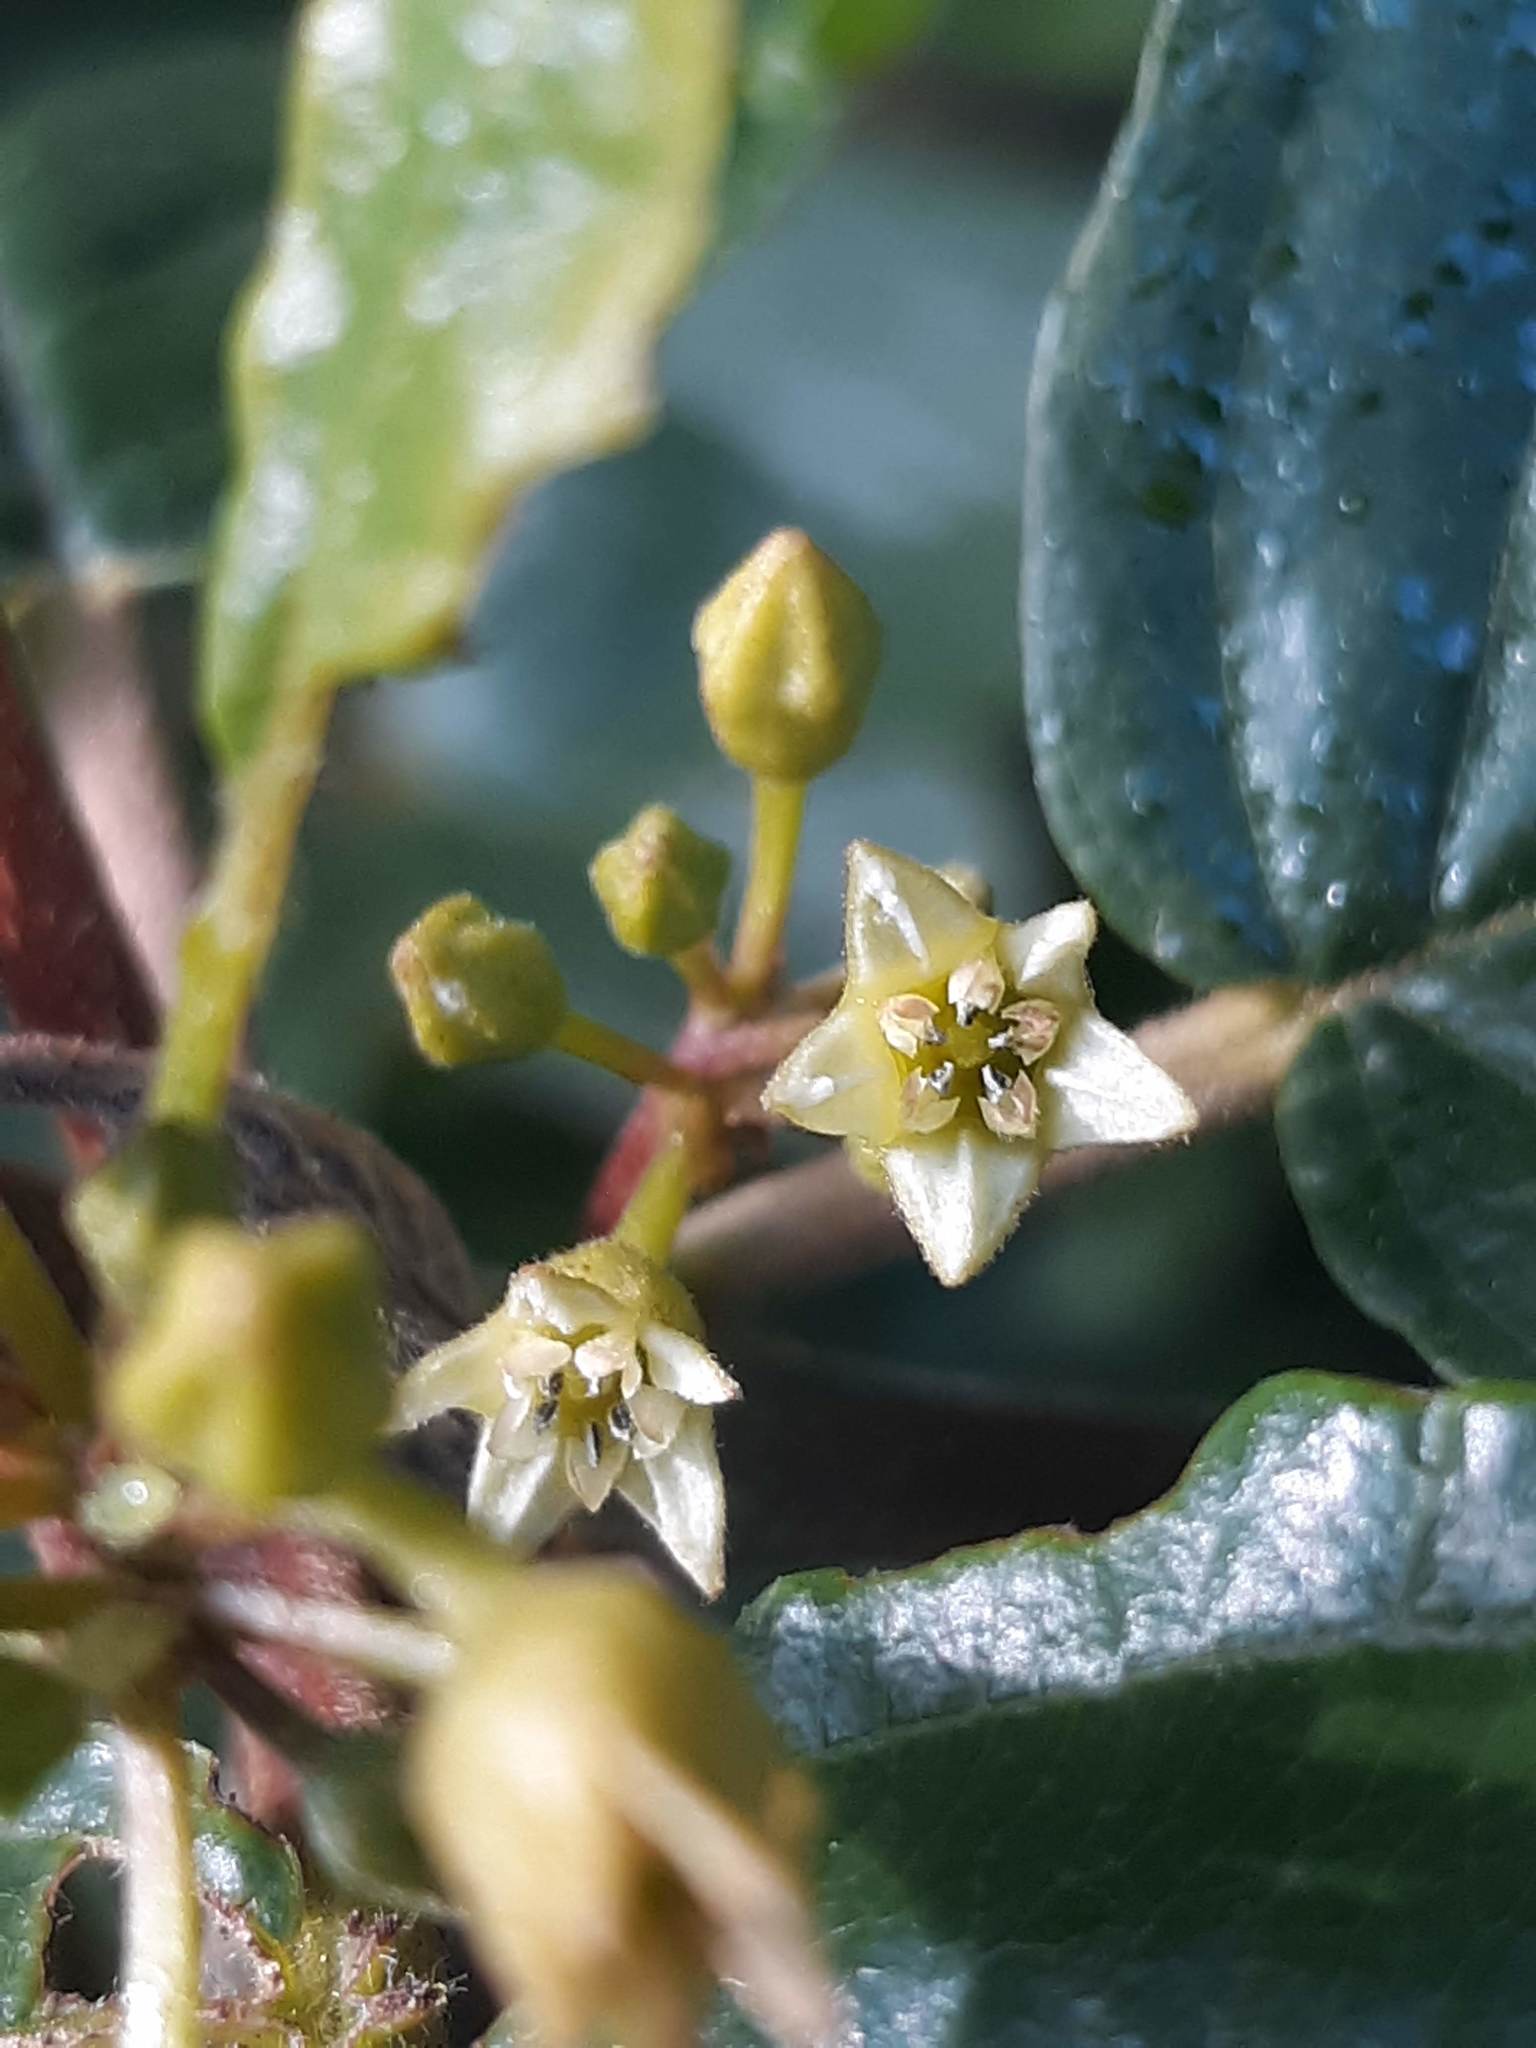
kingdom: Plantae
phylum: Tracheophyta
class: Magnoliopsida
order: Rosales
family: Rhamnaceae
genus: Frangula
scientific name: Frangula purshiana
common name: Cascara buckthorn
